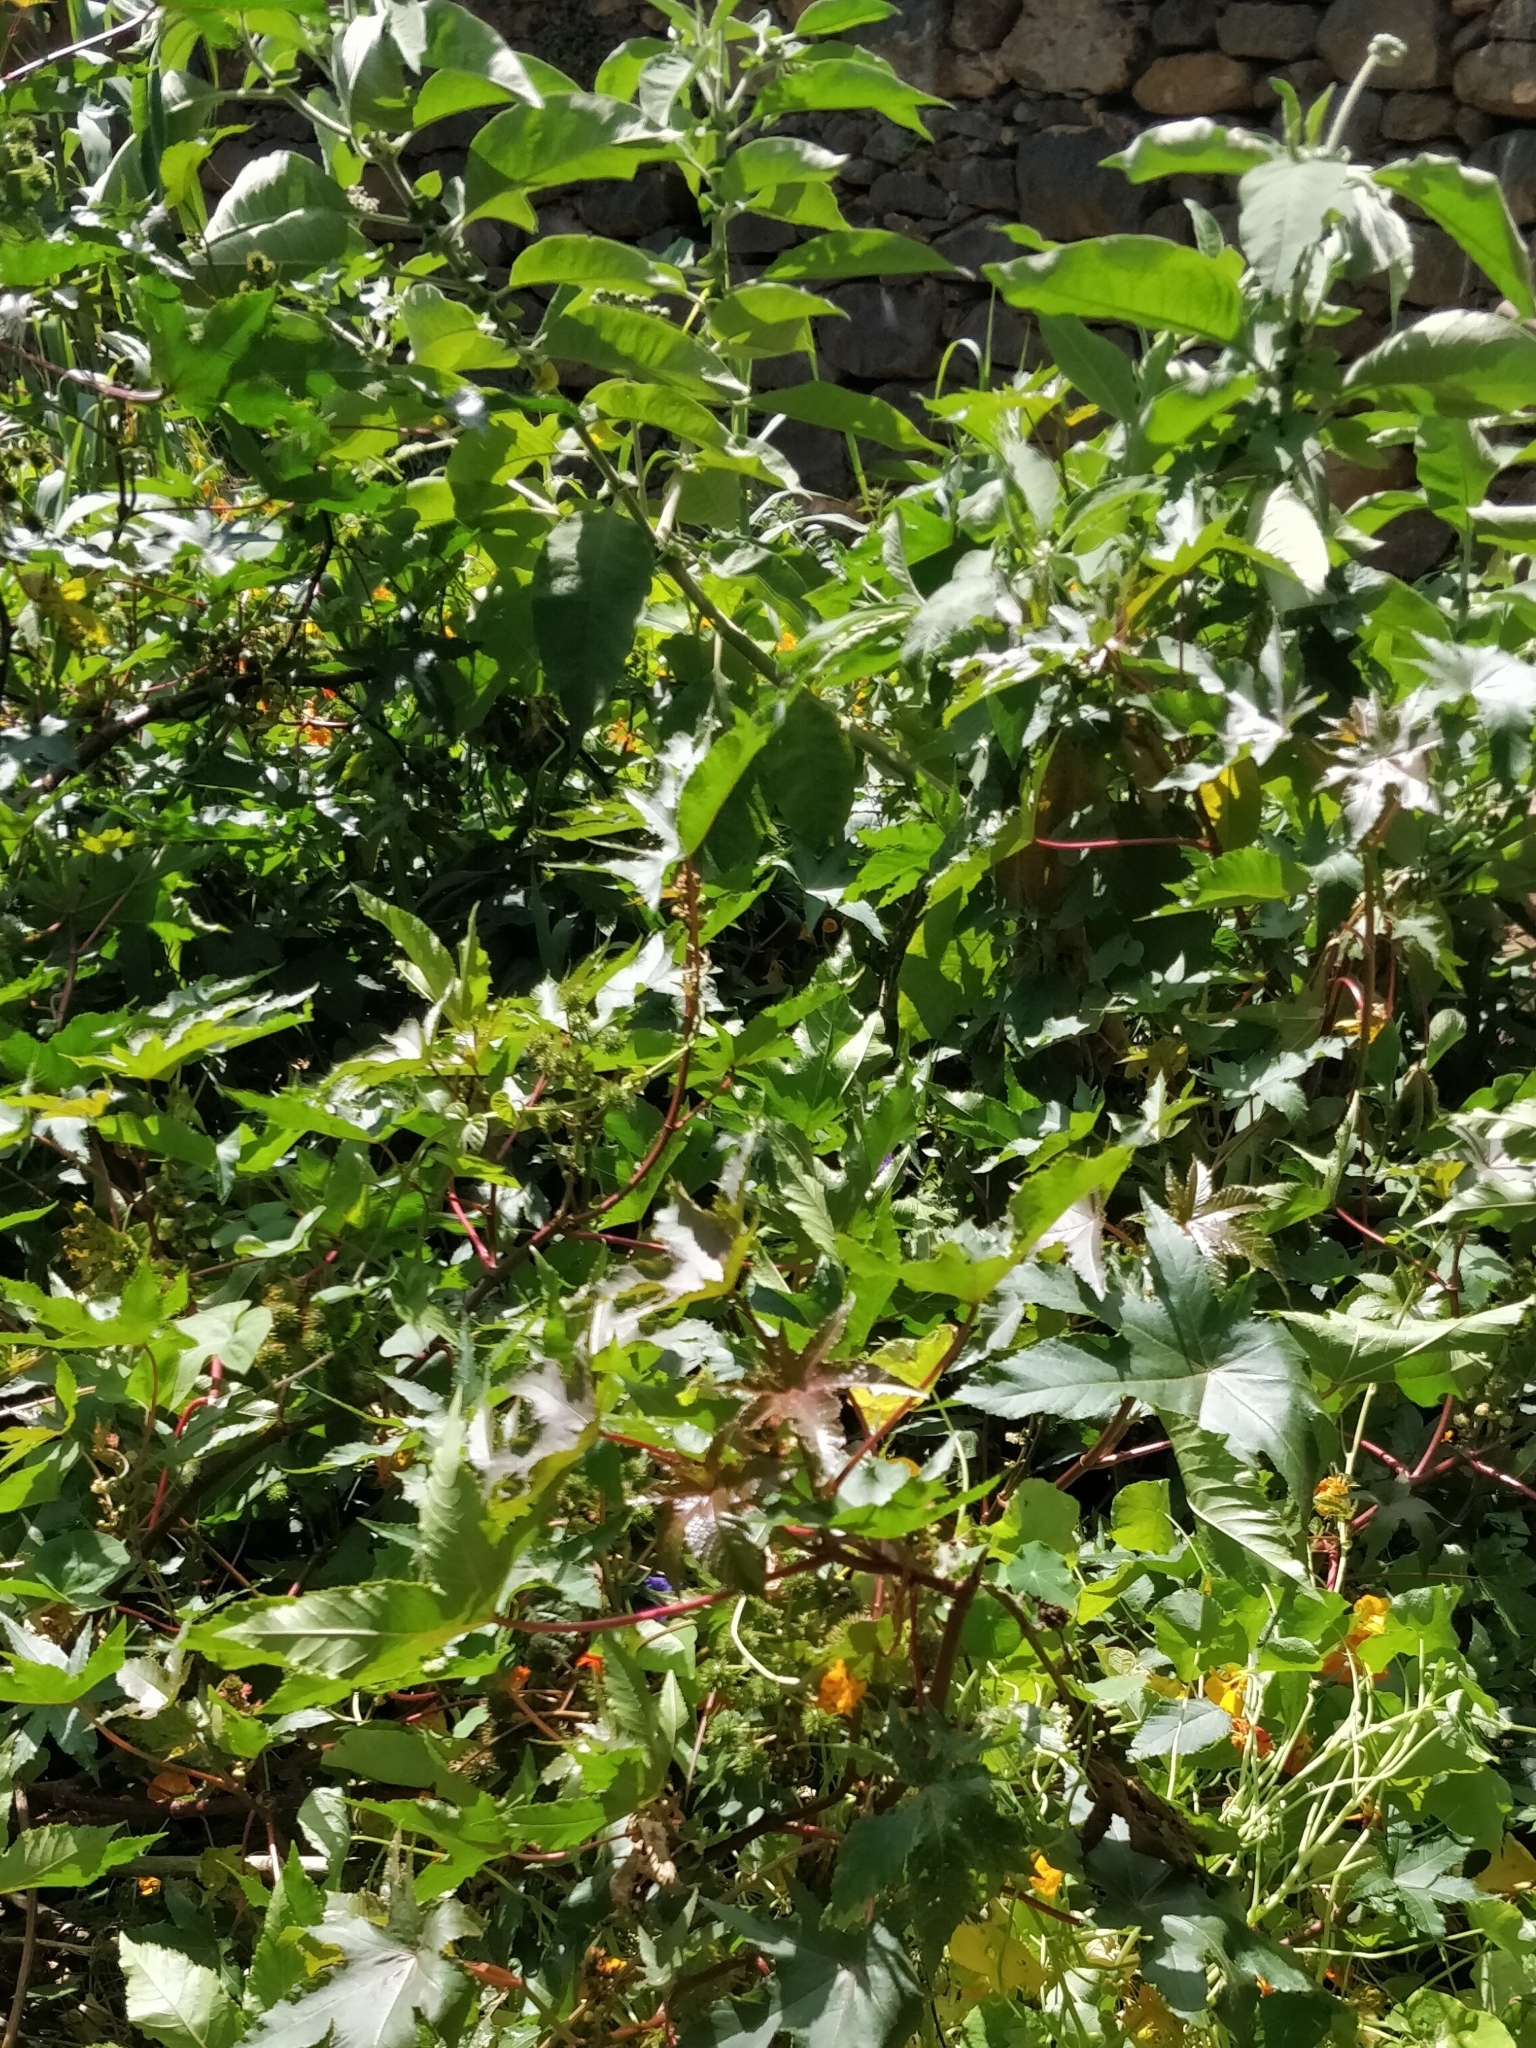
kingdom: Plantae
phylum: Tracheophyta
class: Magnoliopsida
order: Malpighiales
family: Euphorbiaceae
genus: Ricinus
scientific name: Ricinus communis
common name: Castor-oil-plant
